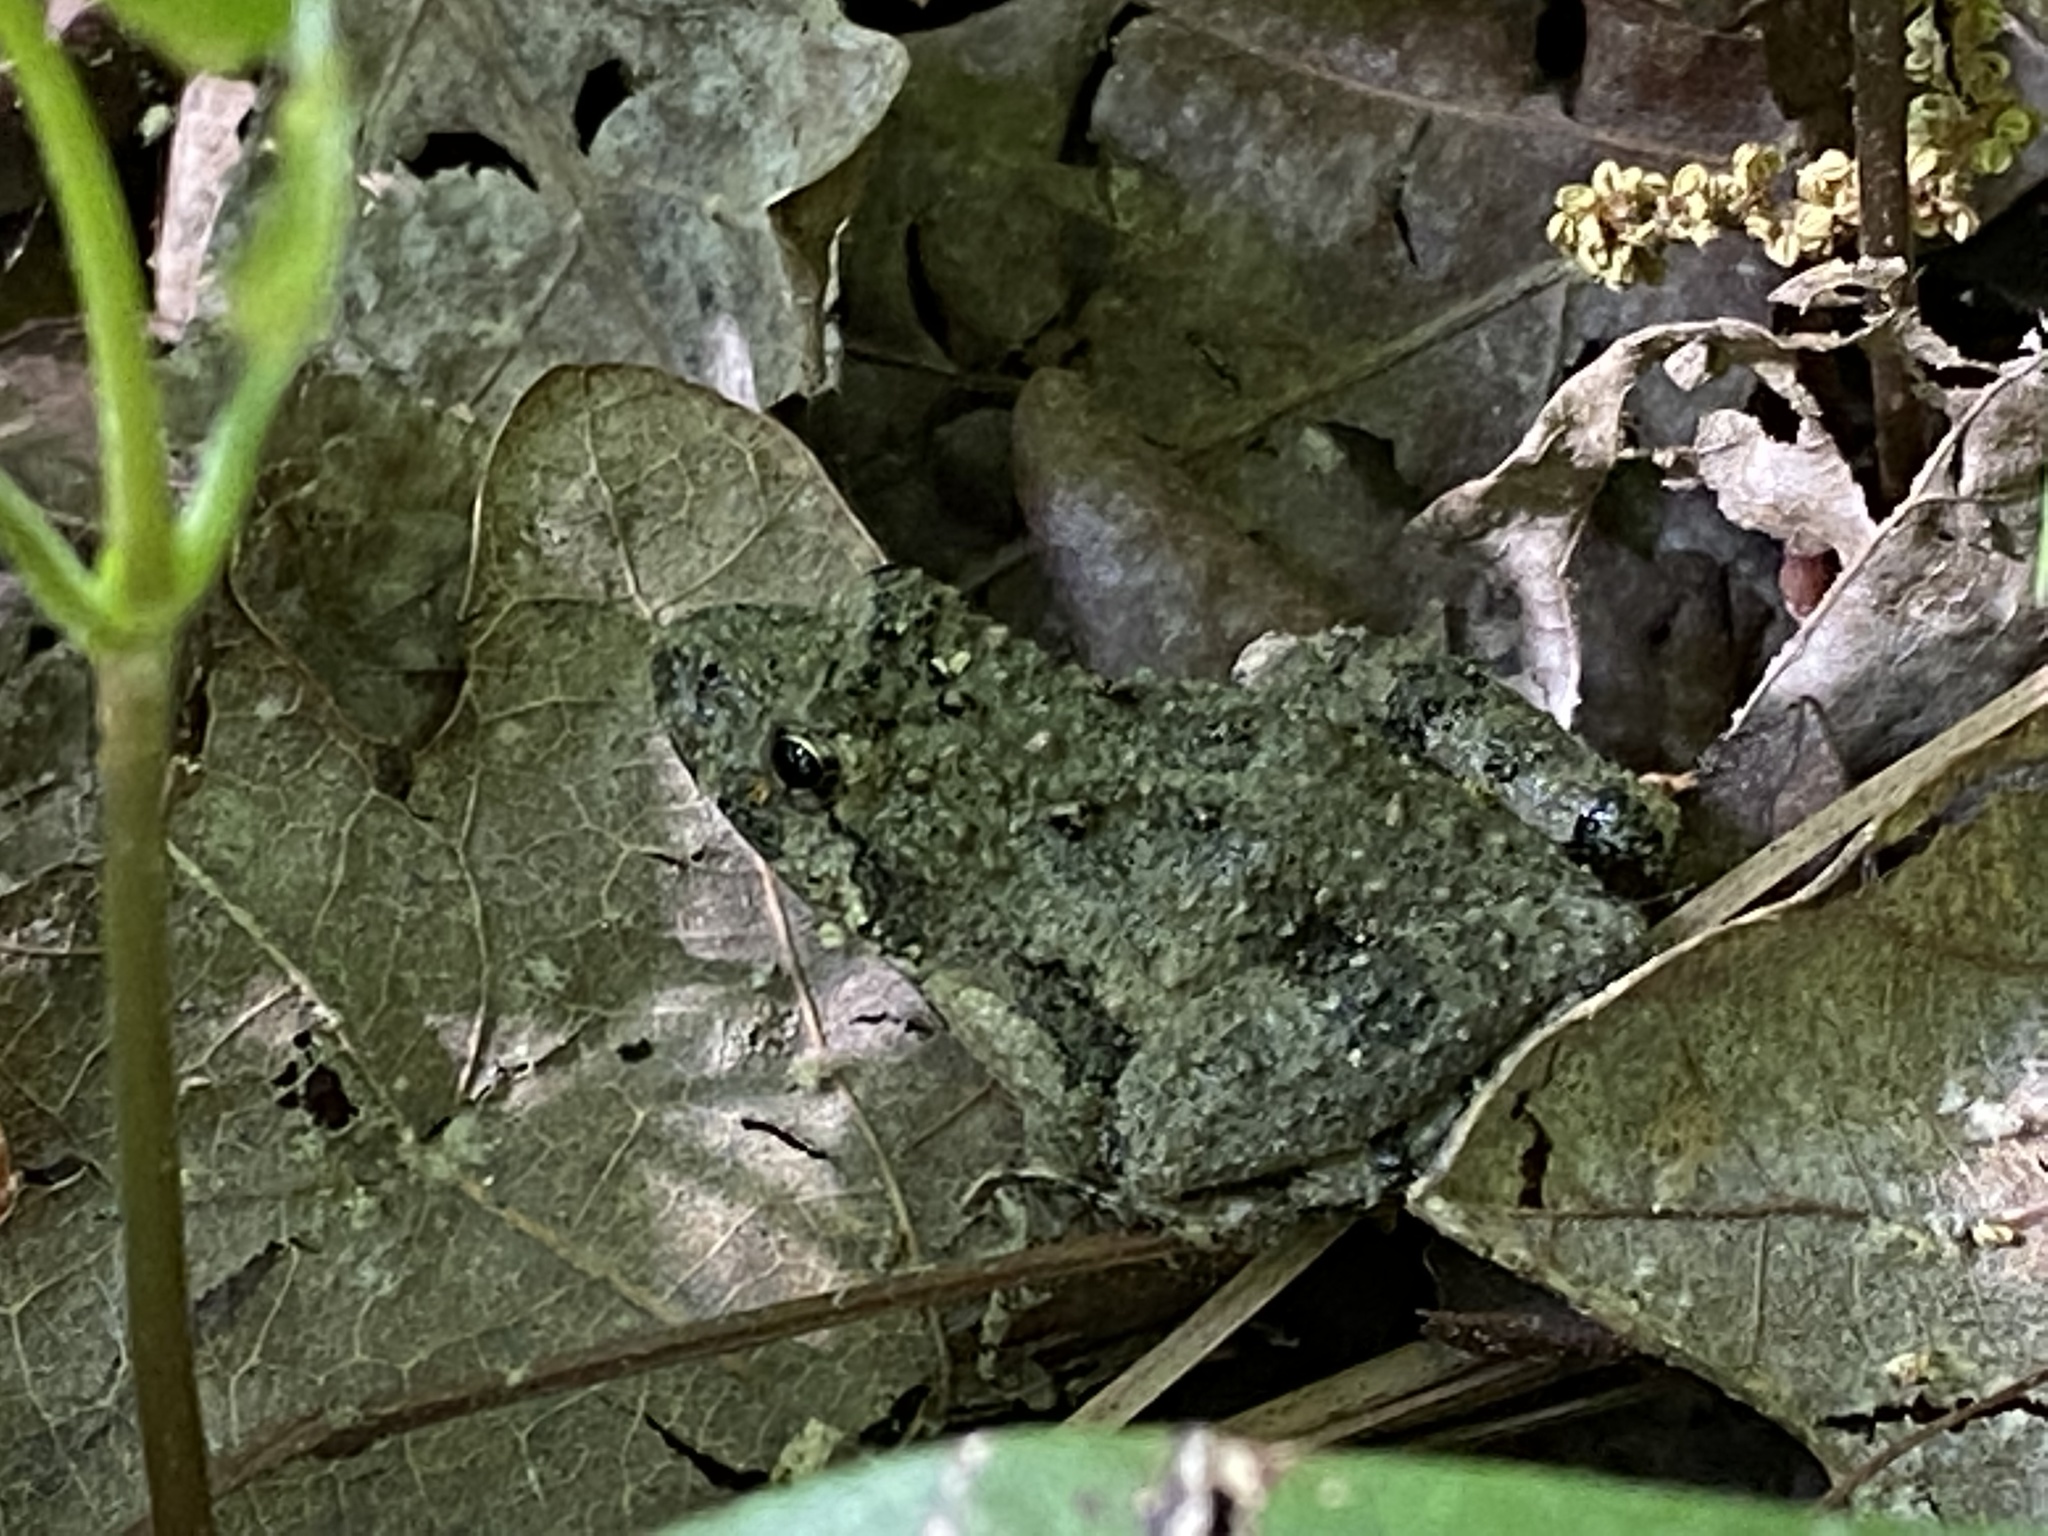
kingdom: Animalia
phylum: Chordata
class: Amphibia
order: Anura
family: Hylidae
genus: Acris
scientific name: Acris crepitans
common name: Northern cricket frog
